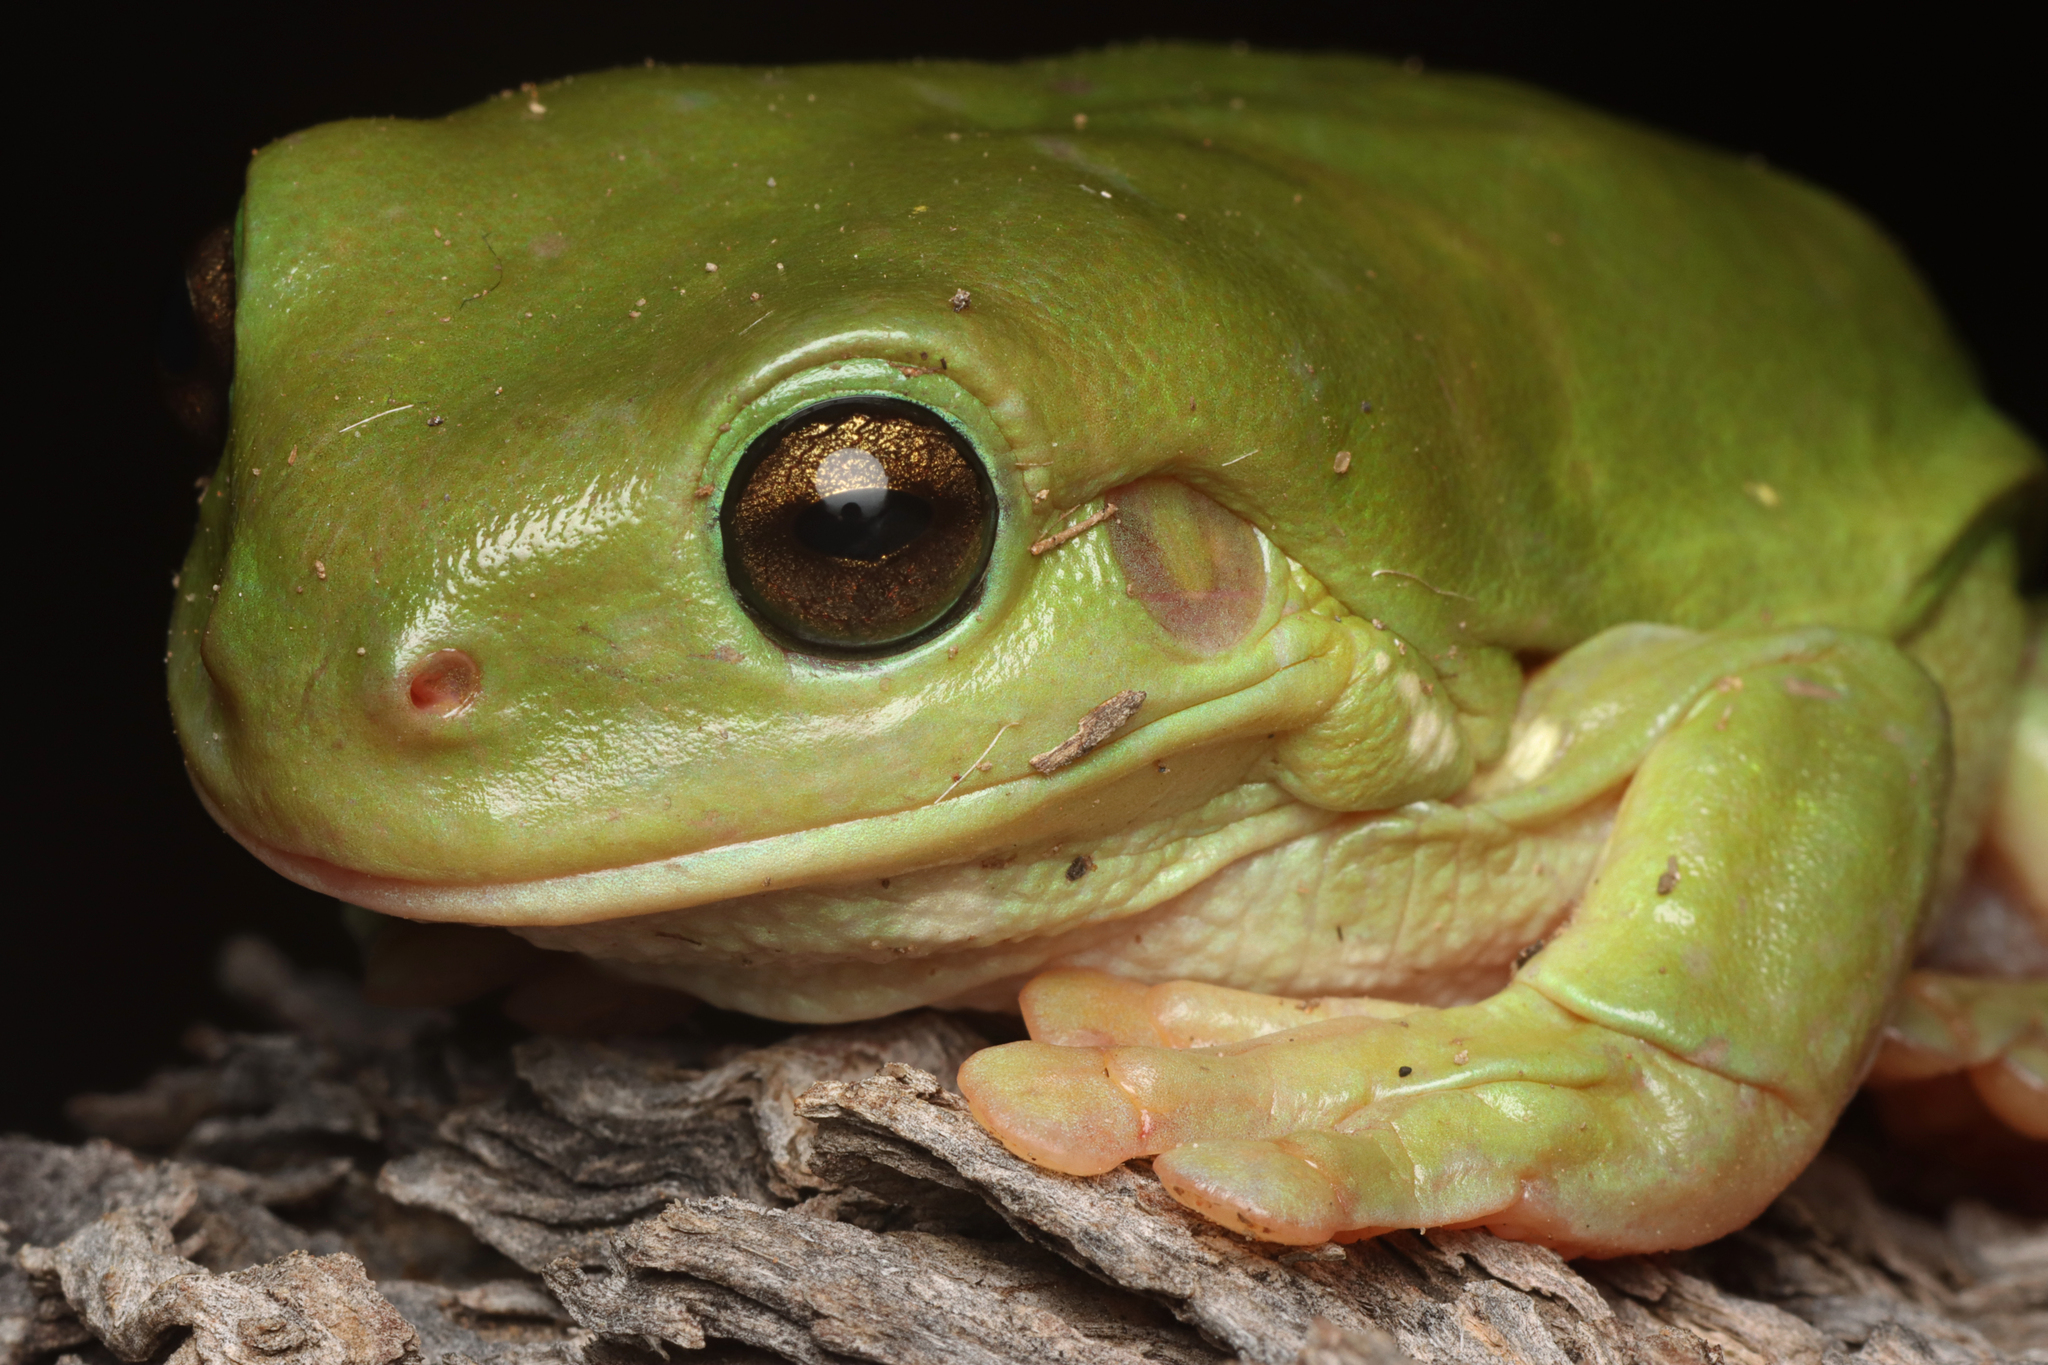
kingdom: Animalia
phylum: Chordata
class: Amphibia
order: Anura
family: Pelodryadidae
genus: Ranoidea
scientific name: Ranoidea caerulea
